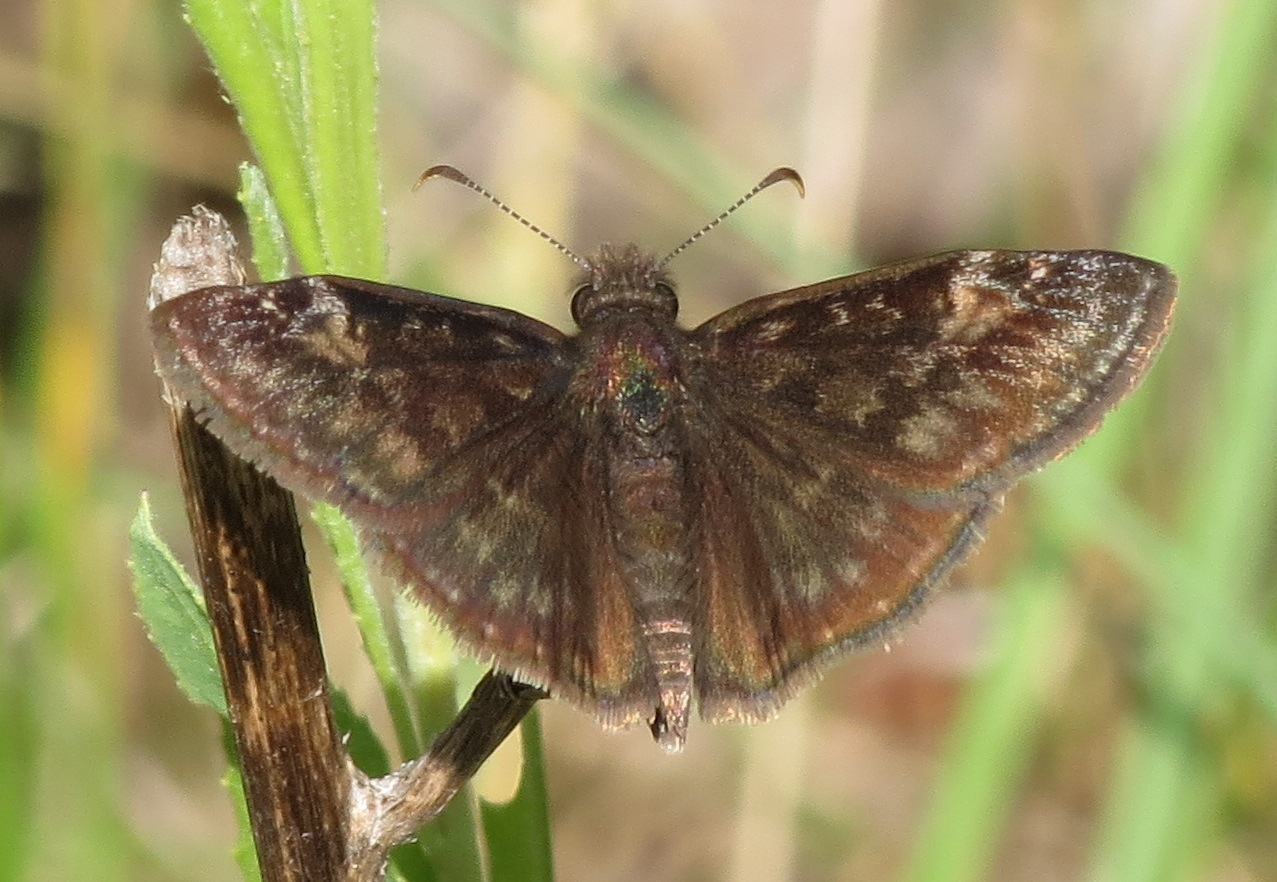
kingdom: Animalia
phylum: Arthropoda
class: Insecta
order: Lepidoptera
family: Hesperiidae
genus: Erynnis
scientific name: Erynnis baptisiae
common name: Wild indigo duskywing
